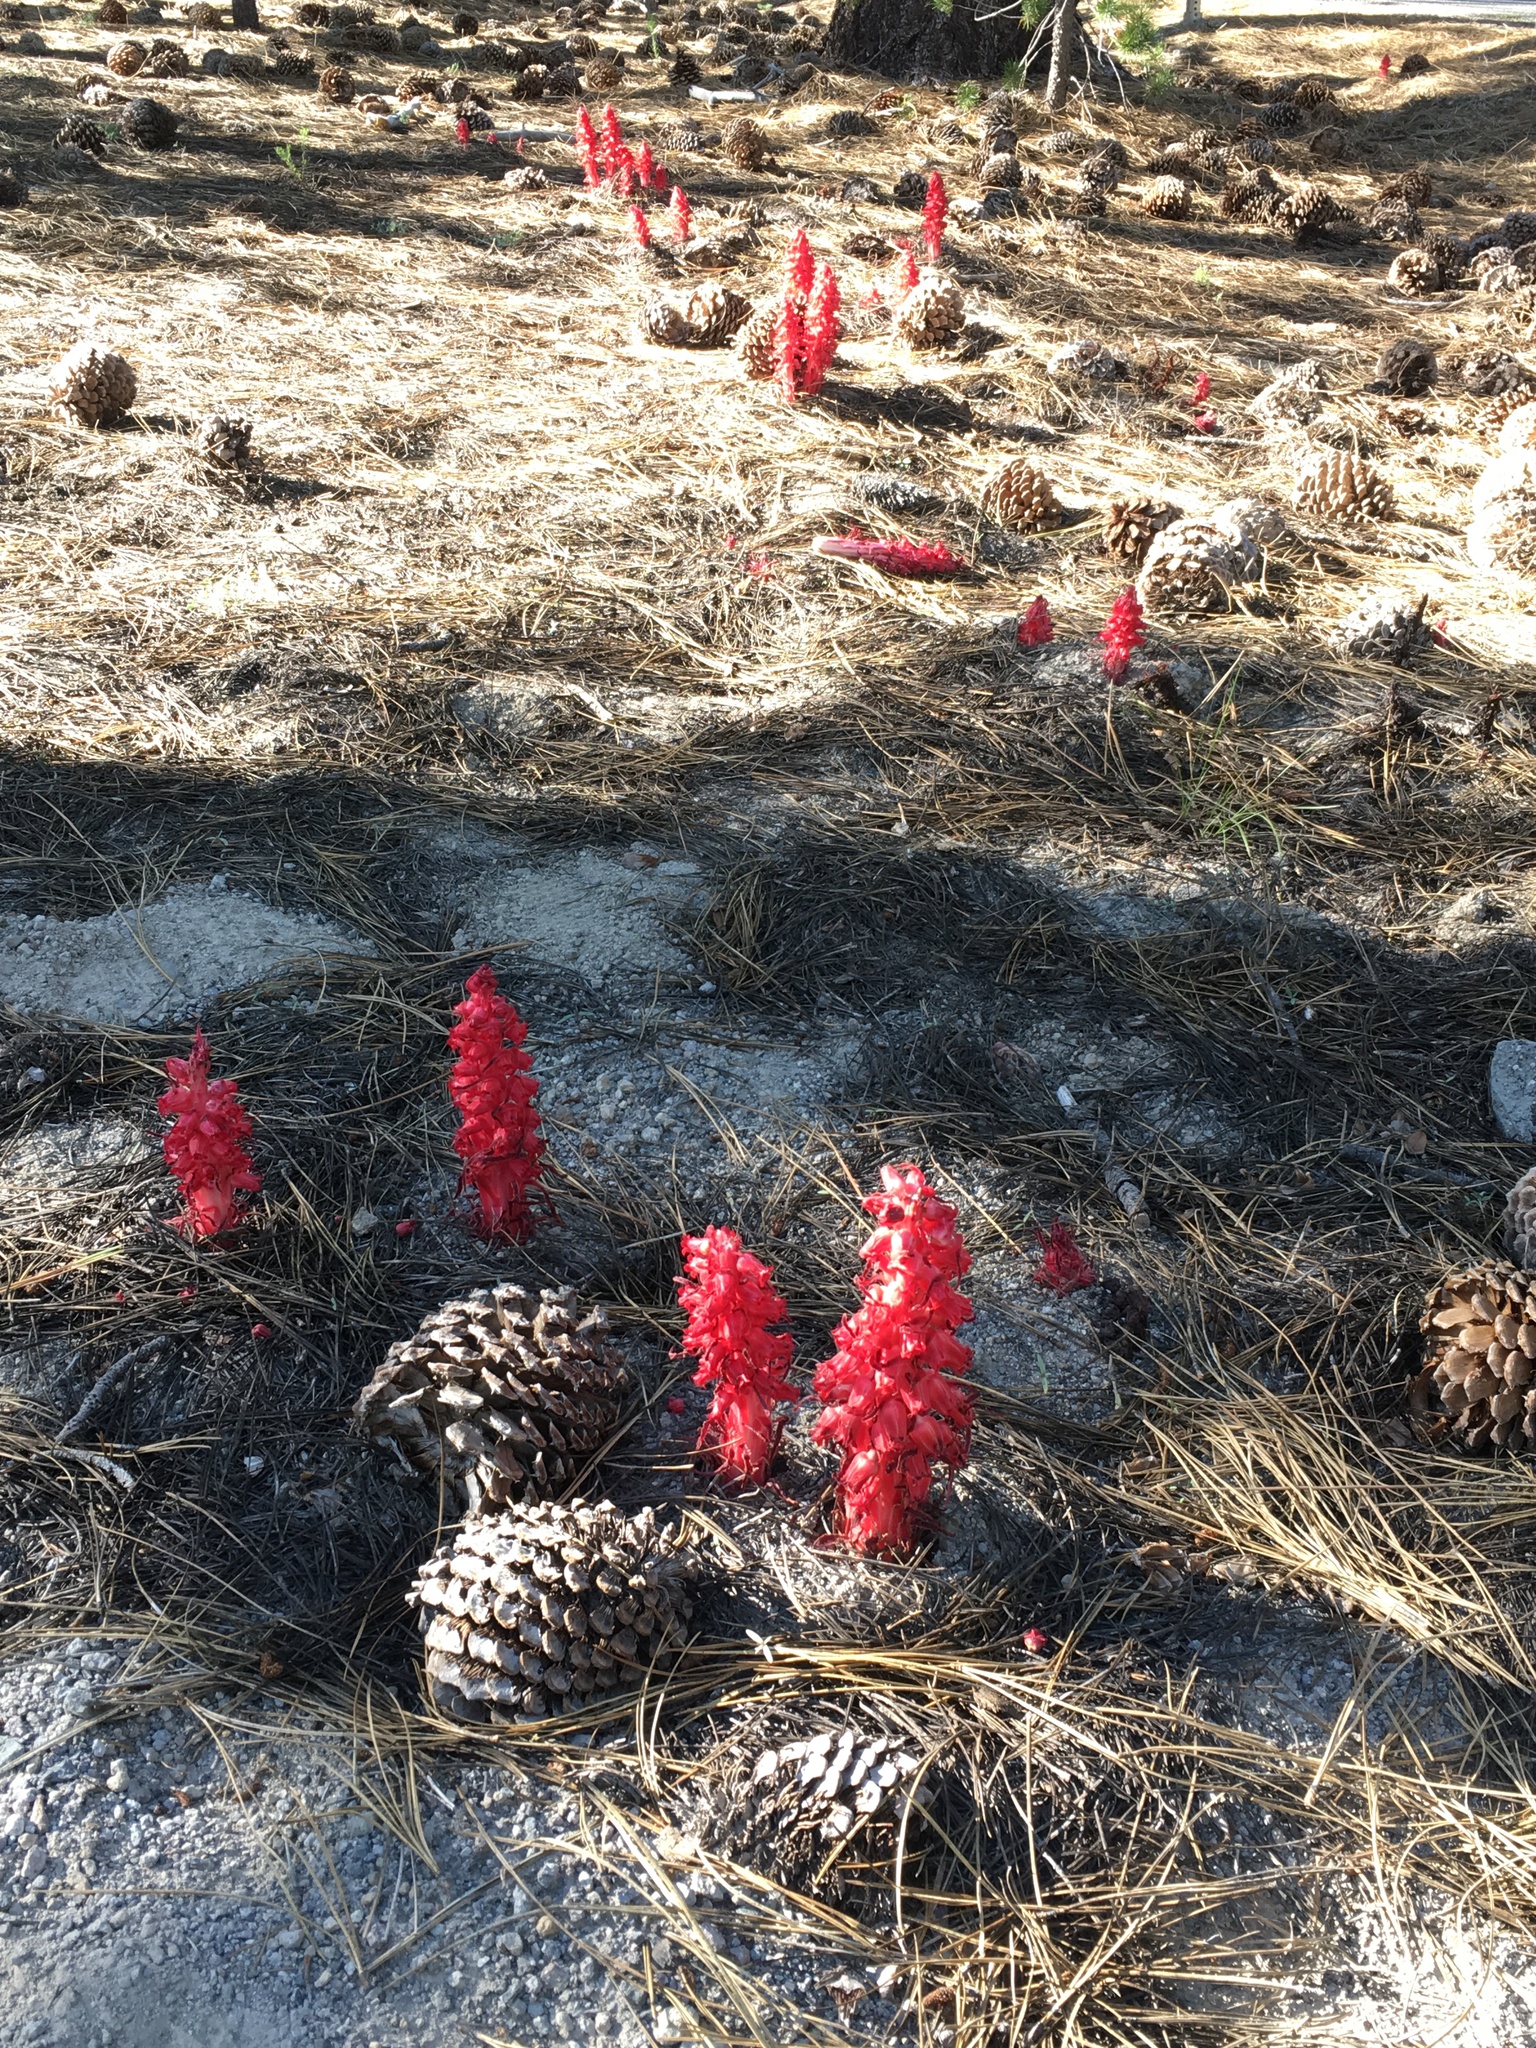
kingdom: Plantae
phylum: Tracheophyta
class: Magnoliopsida
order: Ericales
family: Ericaceae
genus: Sarcodes
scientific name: Sarcodes sanguinea
